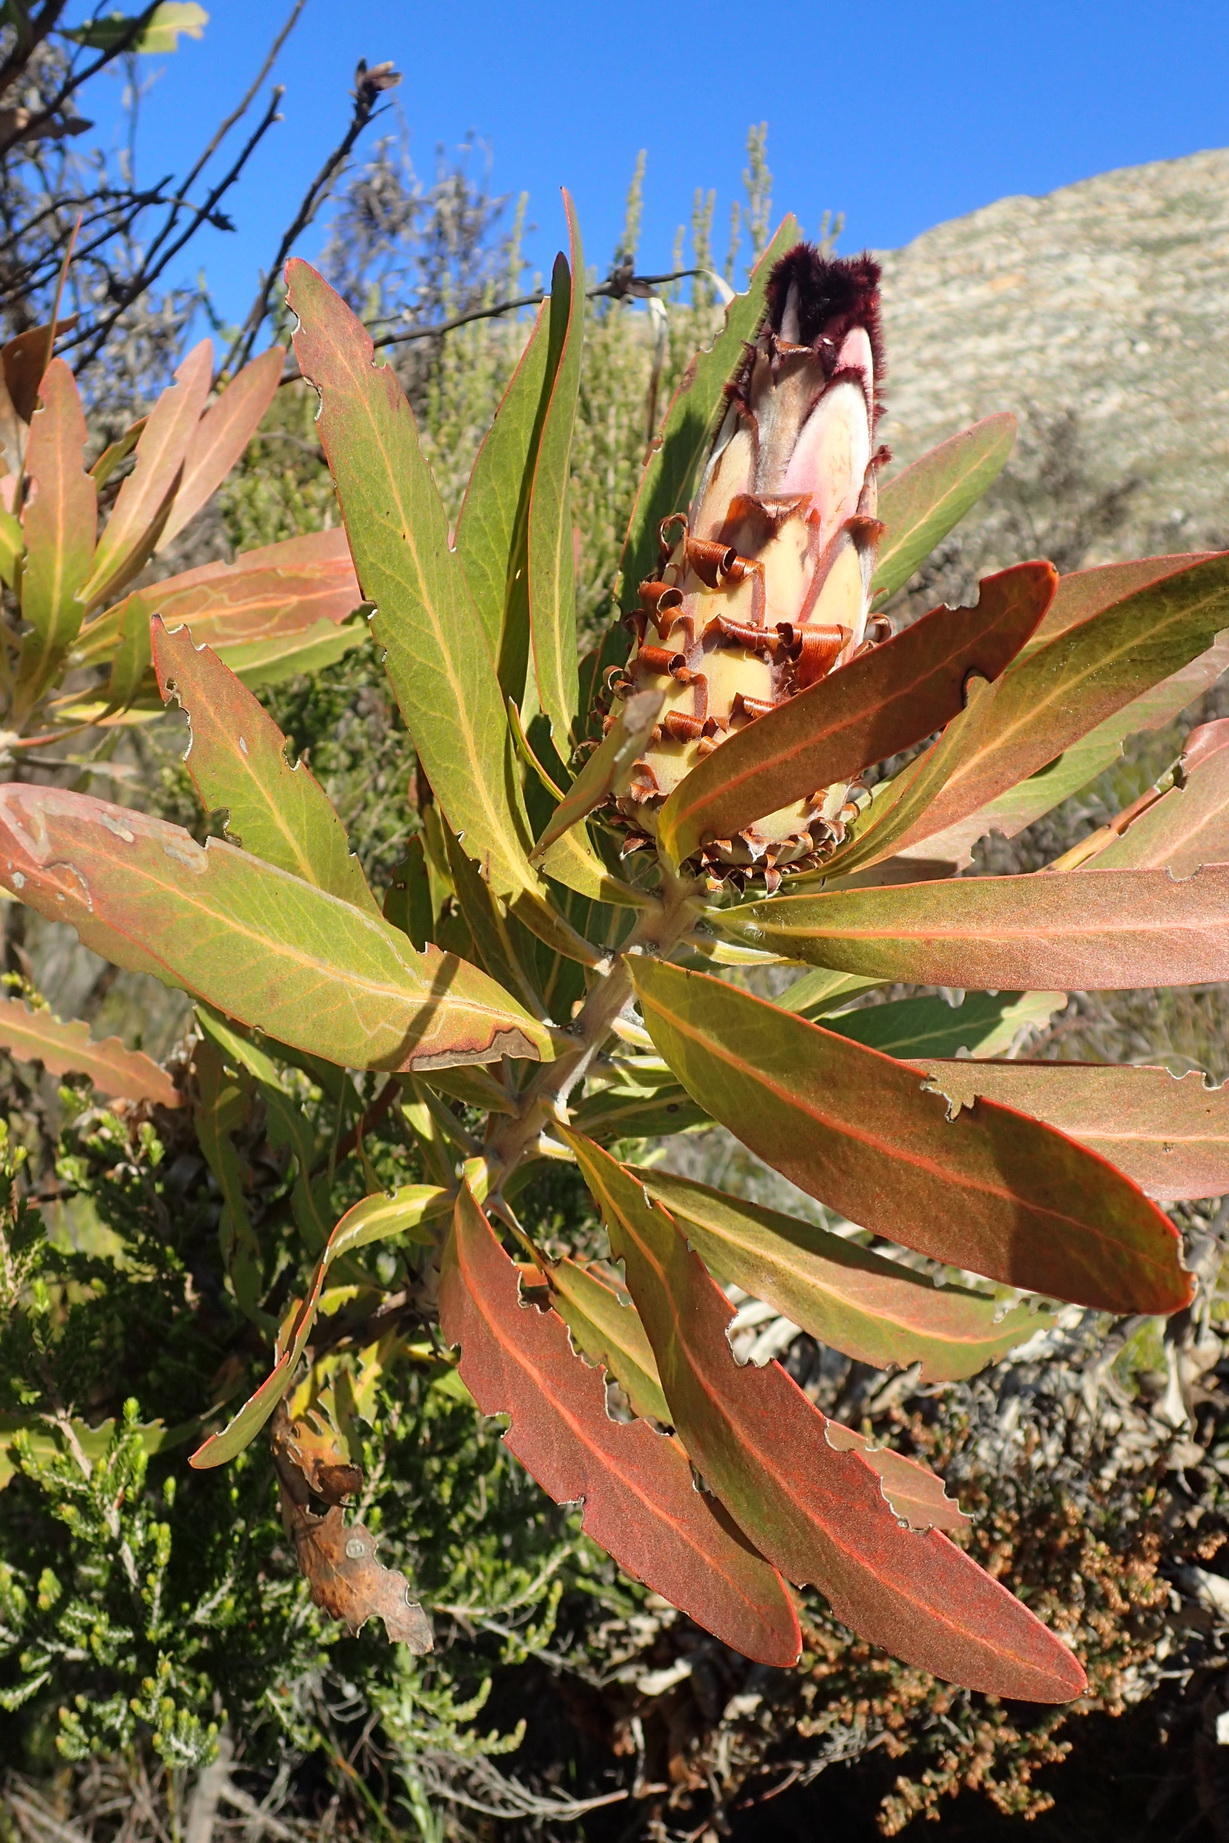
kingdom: Plantae
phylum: Tracheophyta
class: Magnoliopsida
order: Proteales
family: Proteaceae
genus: Protea
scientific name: Protea neriifolia
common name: Blue sugarbush
